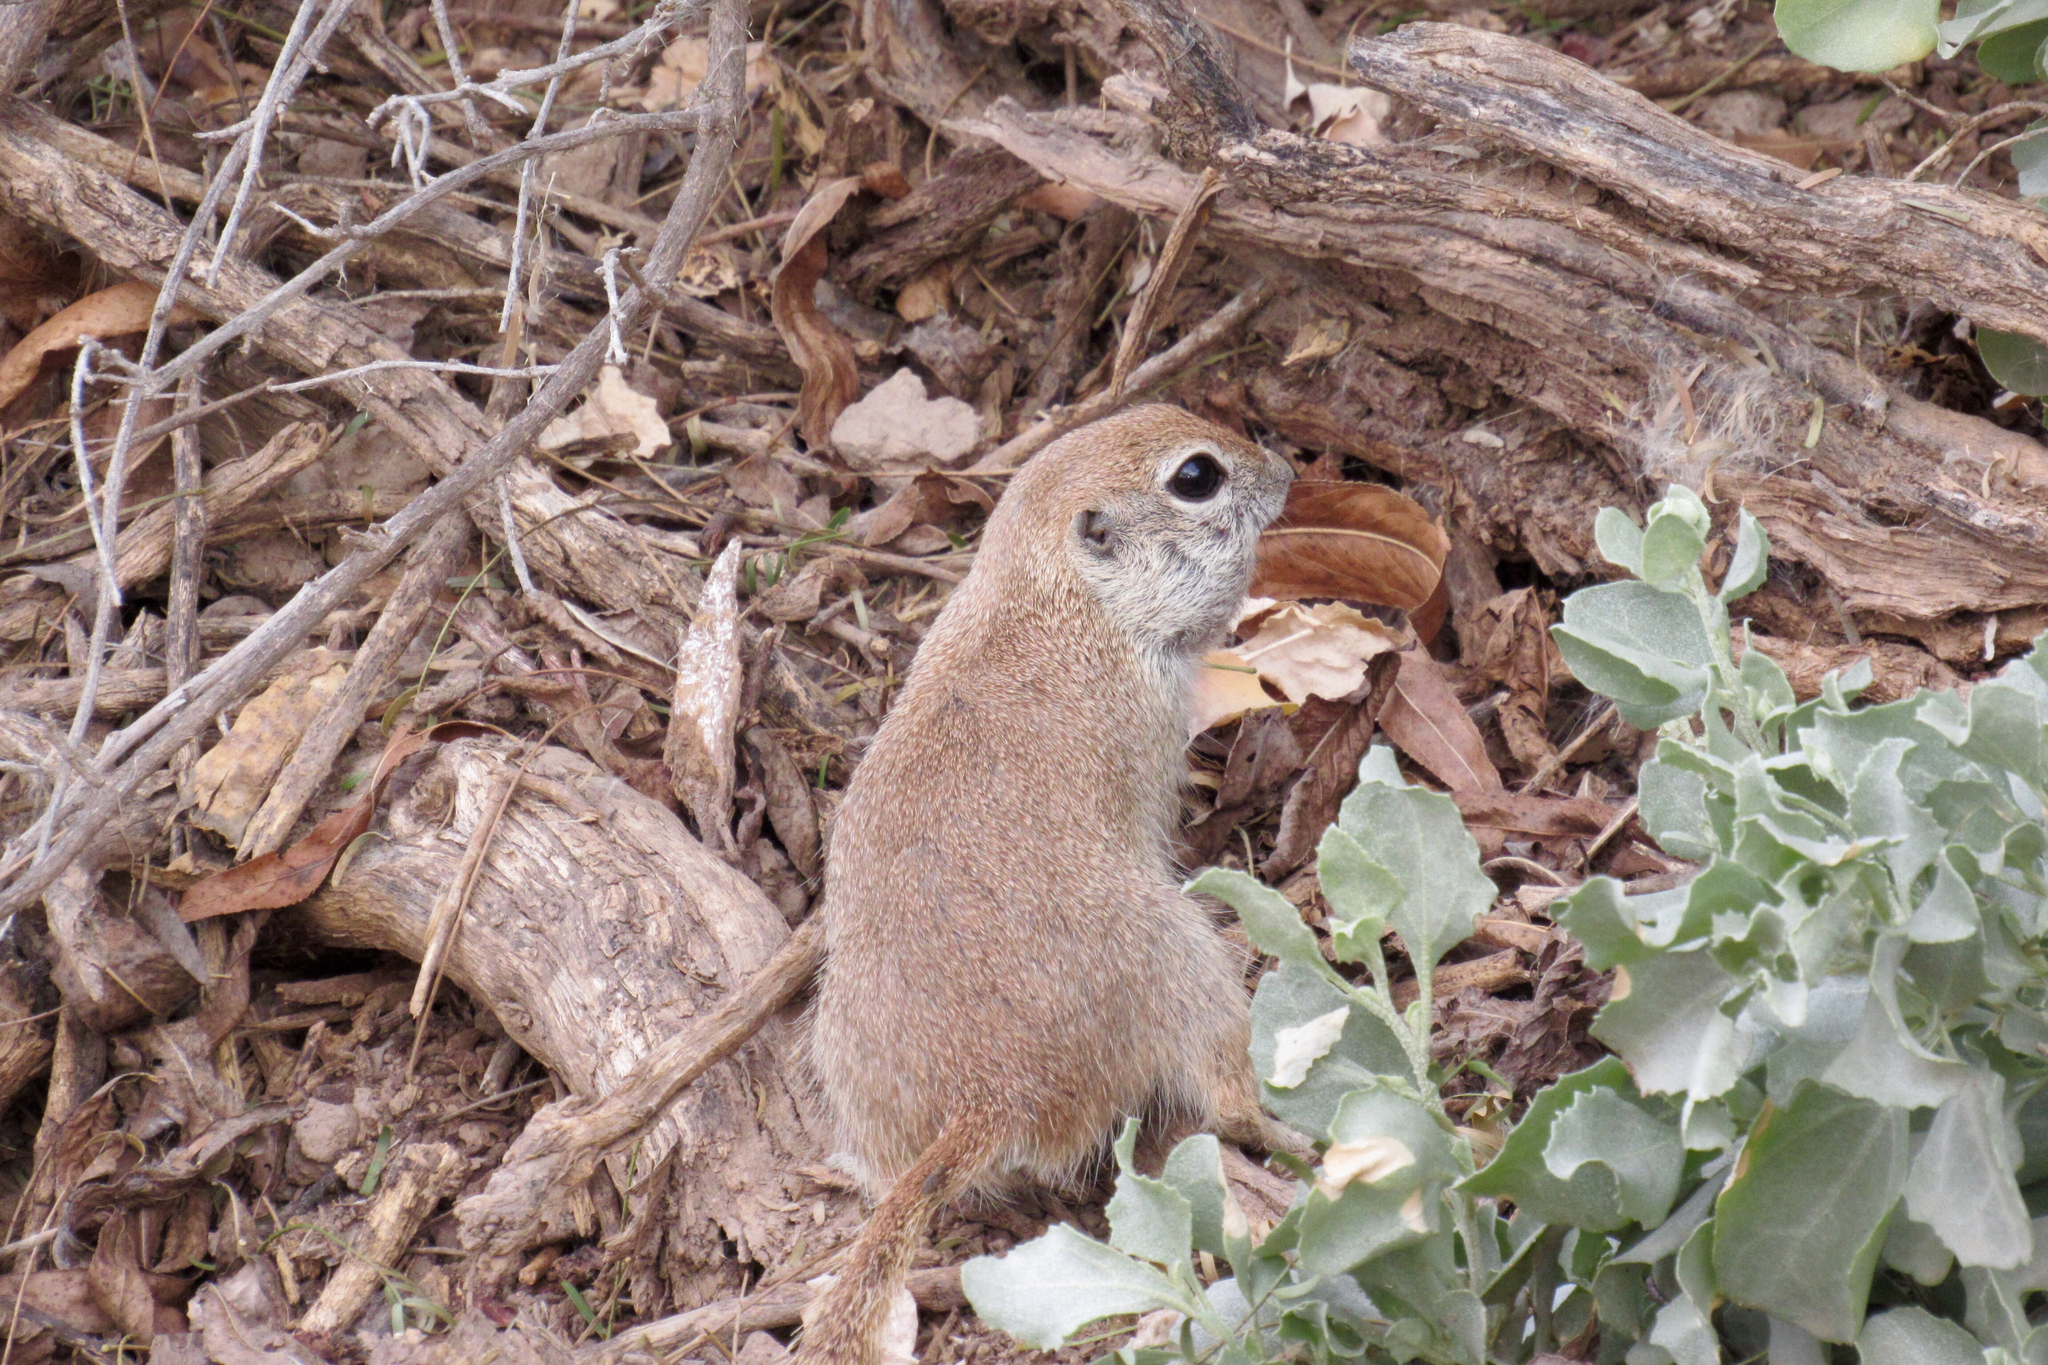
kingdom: Animalia
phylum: Chordata
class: Mammalia
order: Rodentia
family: Sciuridae
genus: Xerospermophilus
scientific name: Xerospermophilus tereticaudus
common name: Round-tailed ground squirrel
